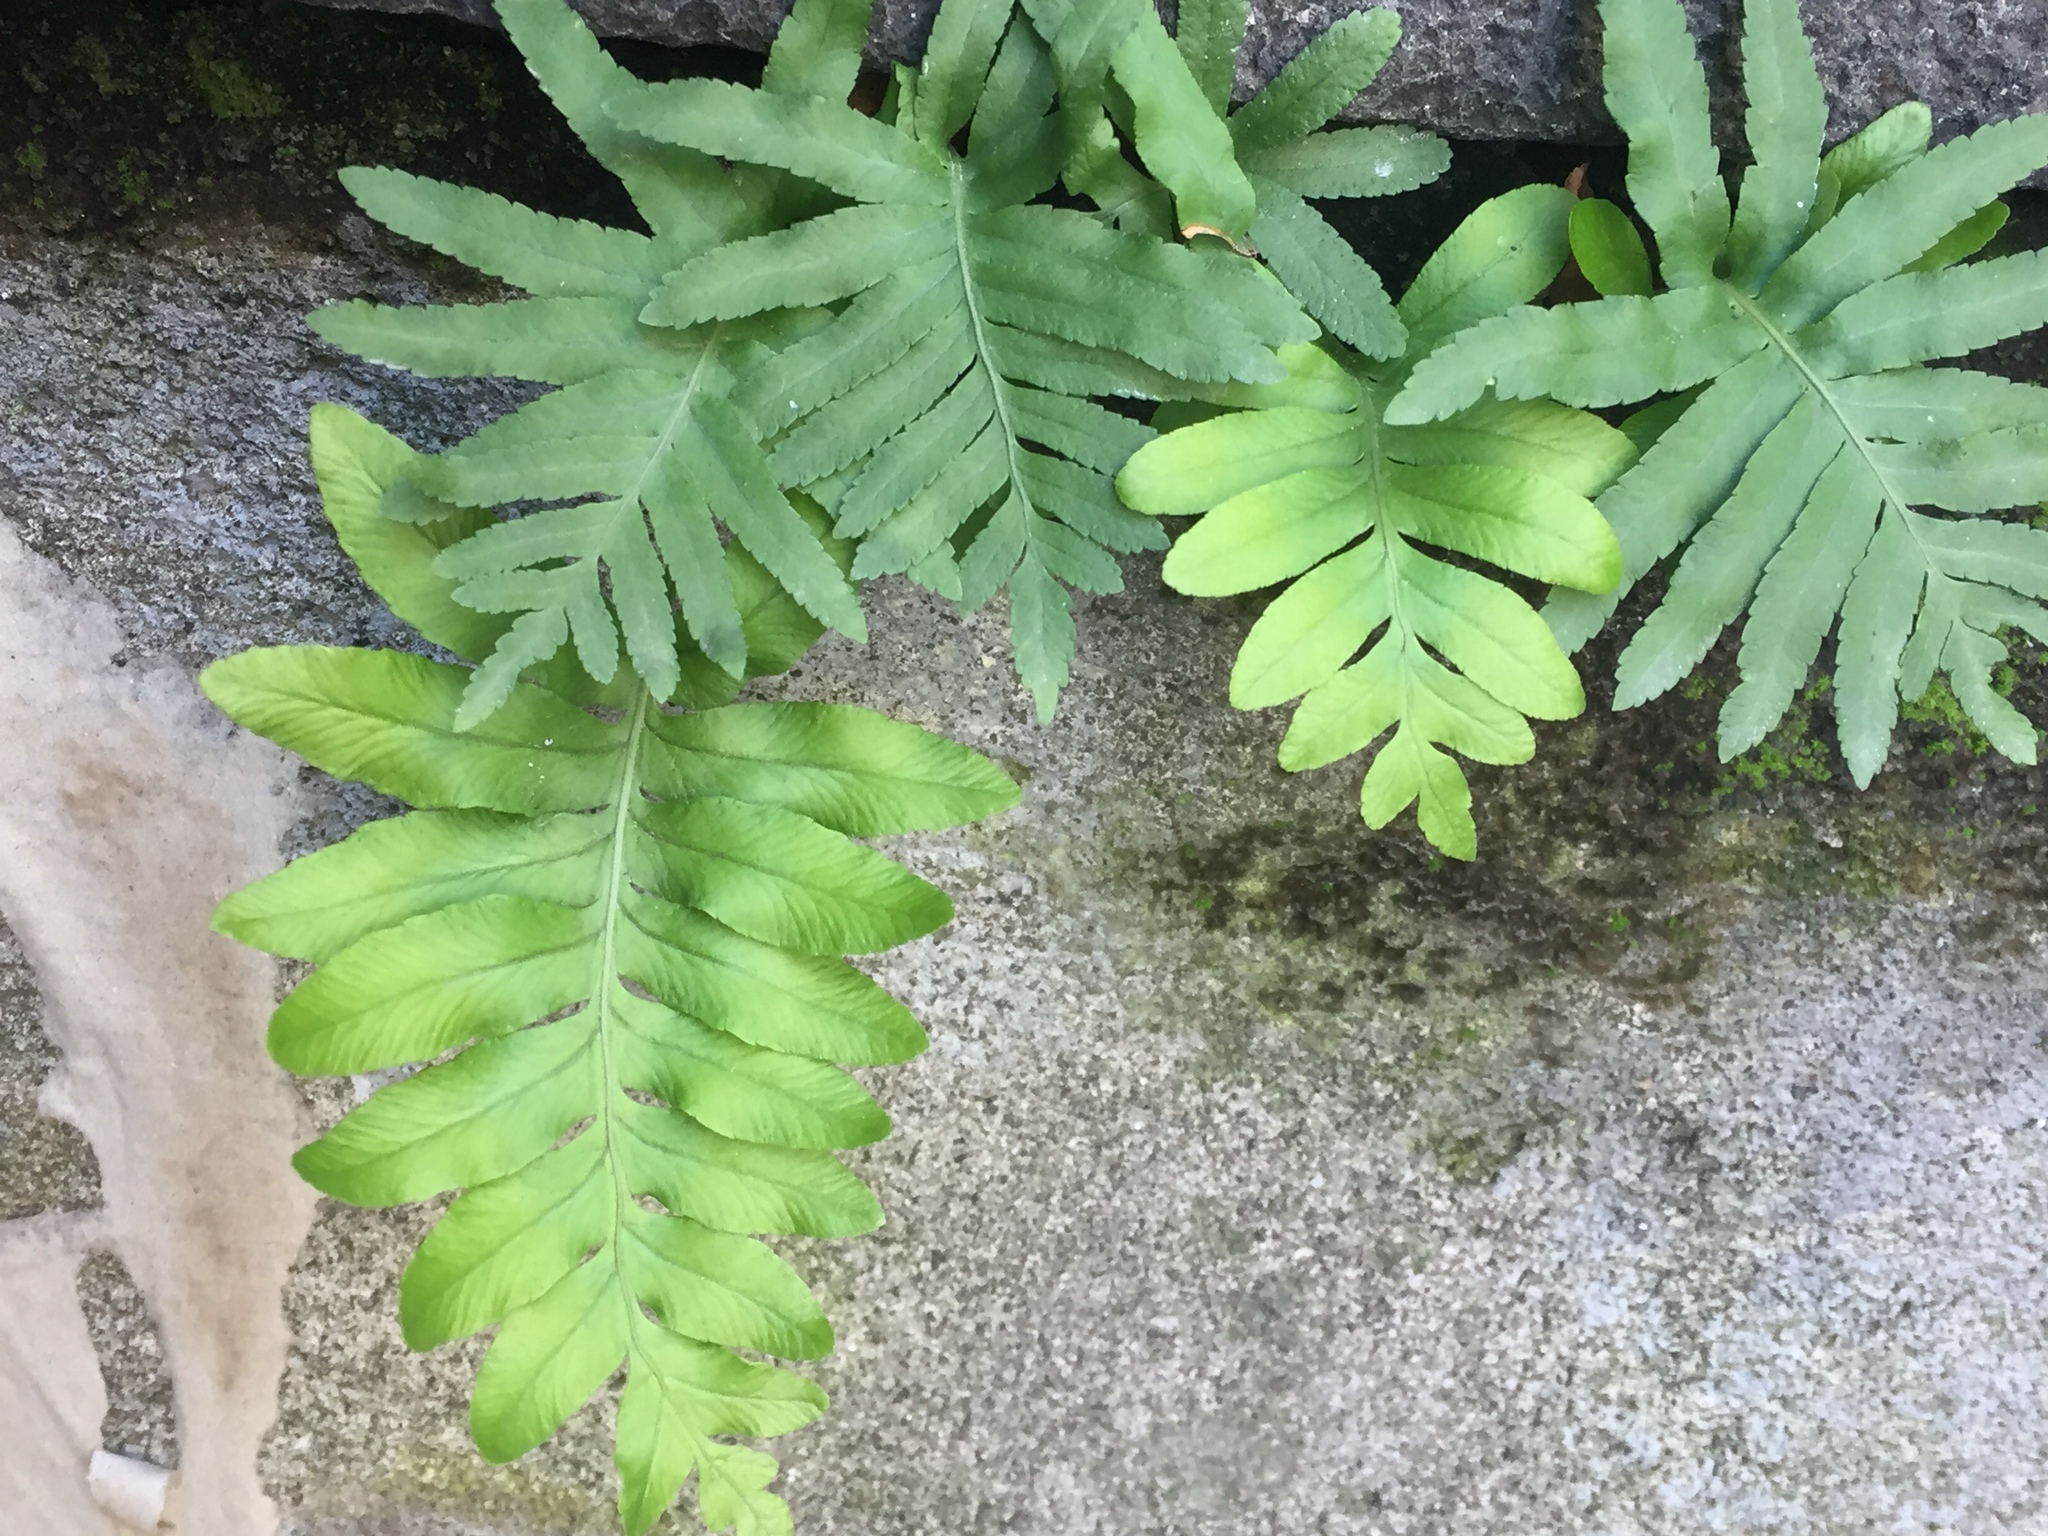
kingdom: Plantae
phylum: Tracheophyta
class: Polypodiopsida
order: Polypodiales
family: Polypodiaceae
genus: Polypodium
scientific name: Polypodium cambricum
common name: Southern polypody
